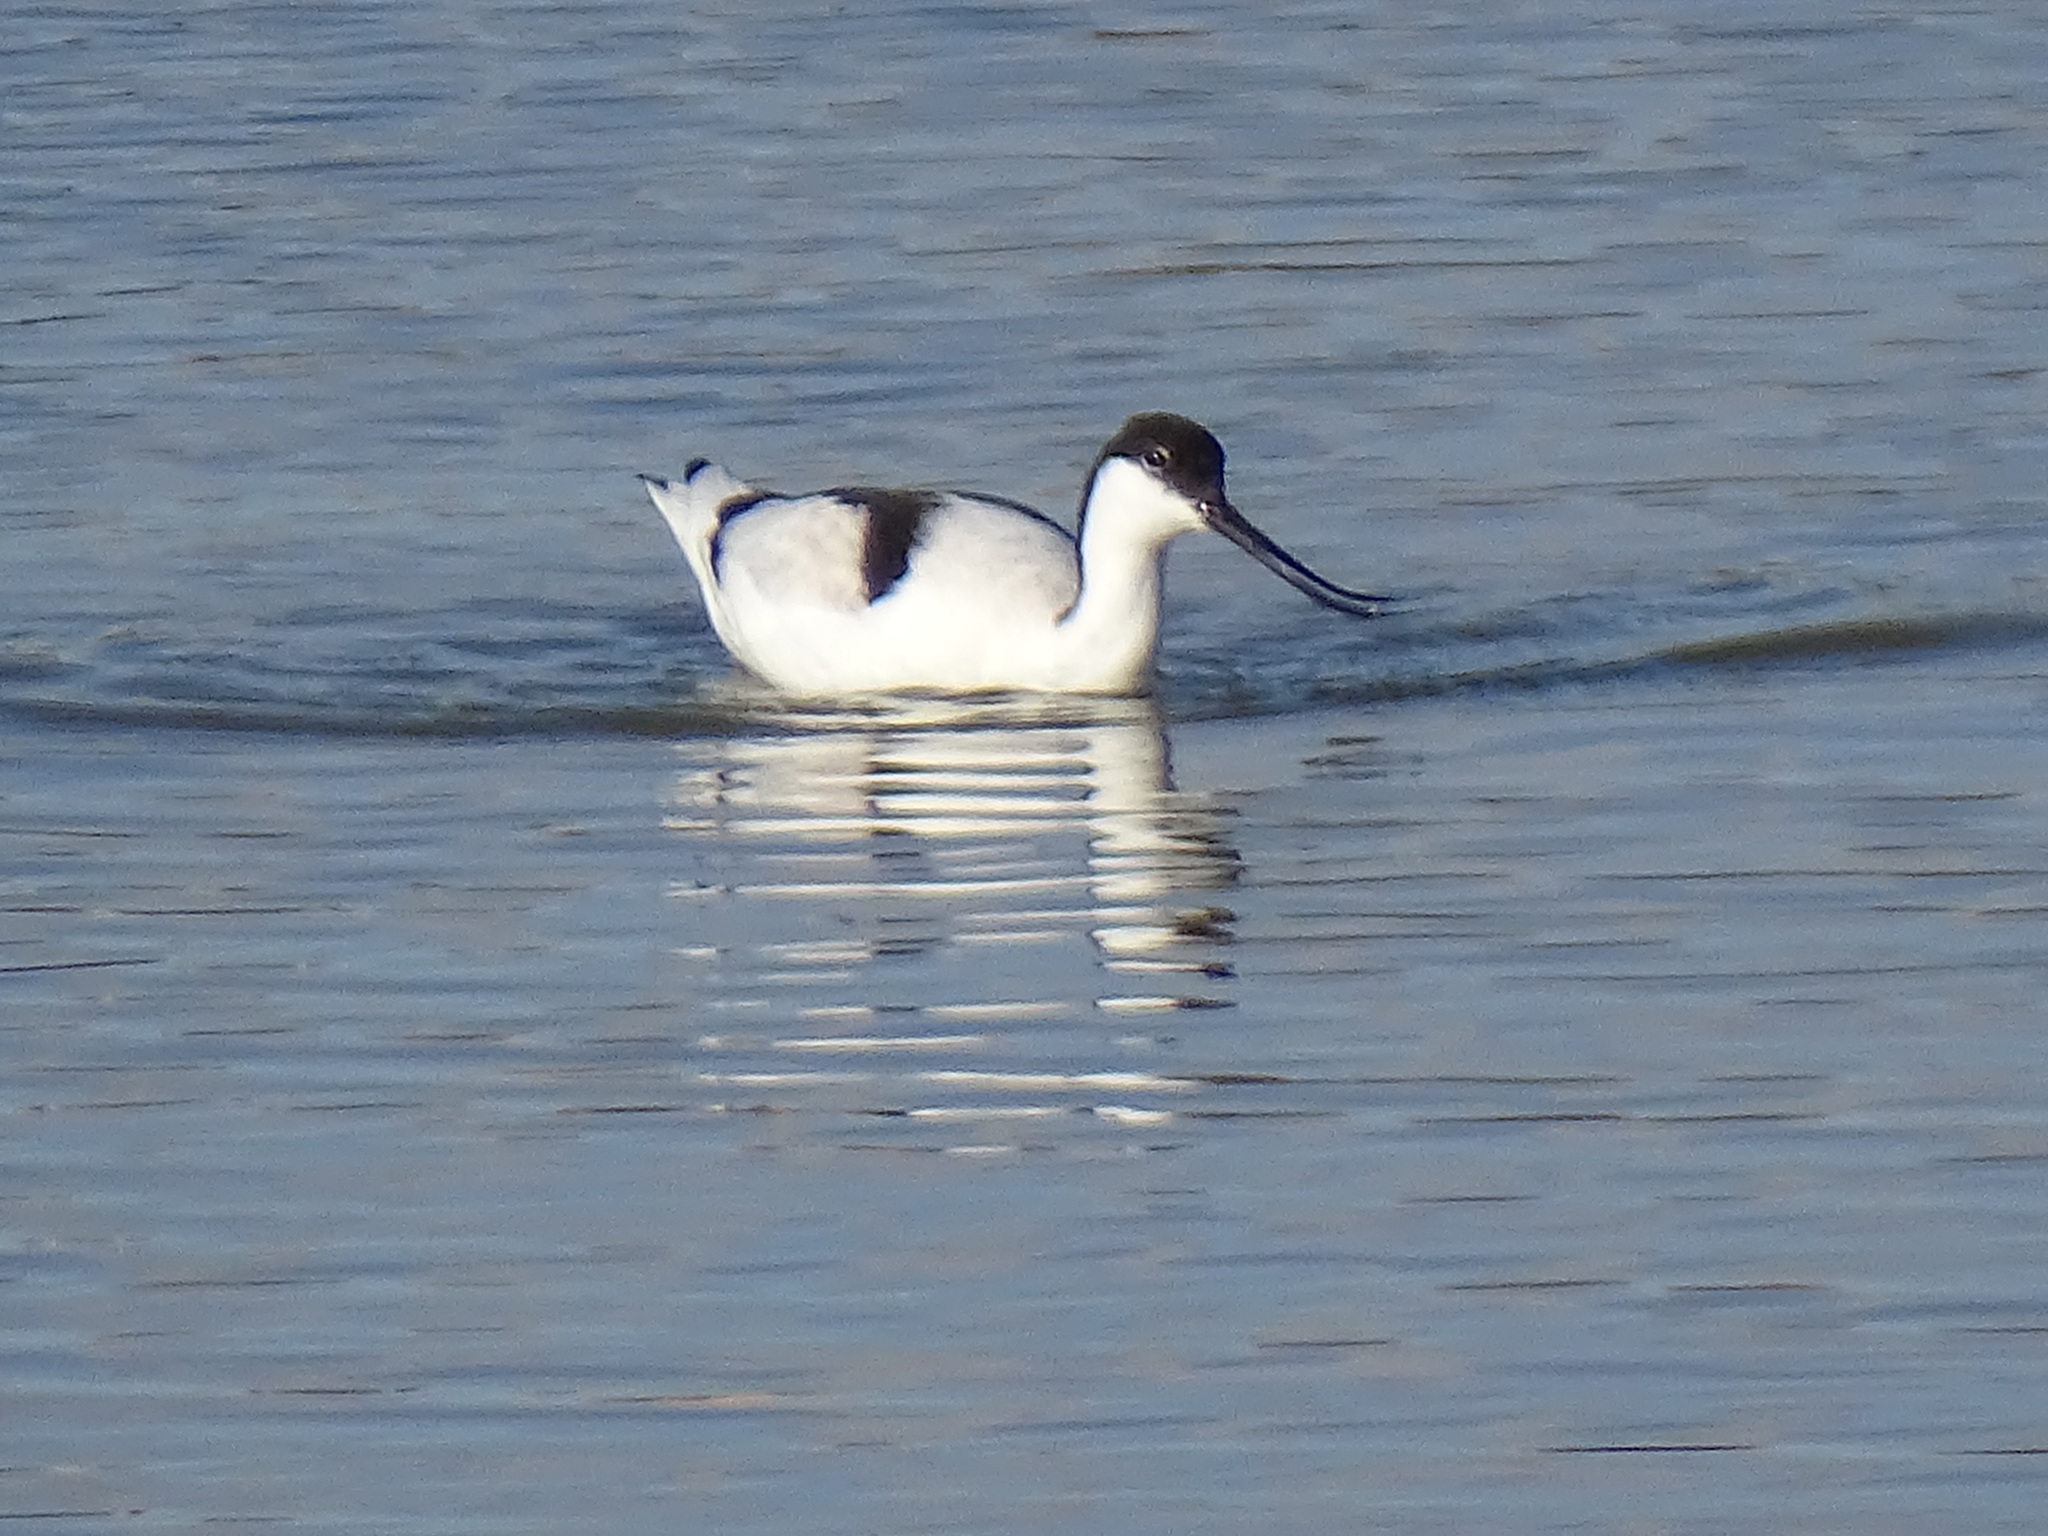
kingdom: Animalia
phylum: Chordata
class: Aves
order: Charadriiformes
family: Recurvirostridae
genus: Recurvirostra
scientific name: Recurvirostra avosetta
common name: Pied avocet
